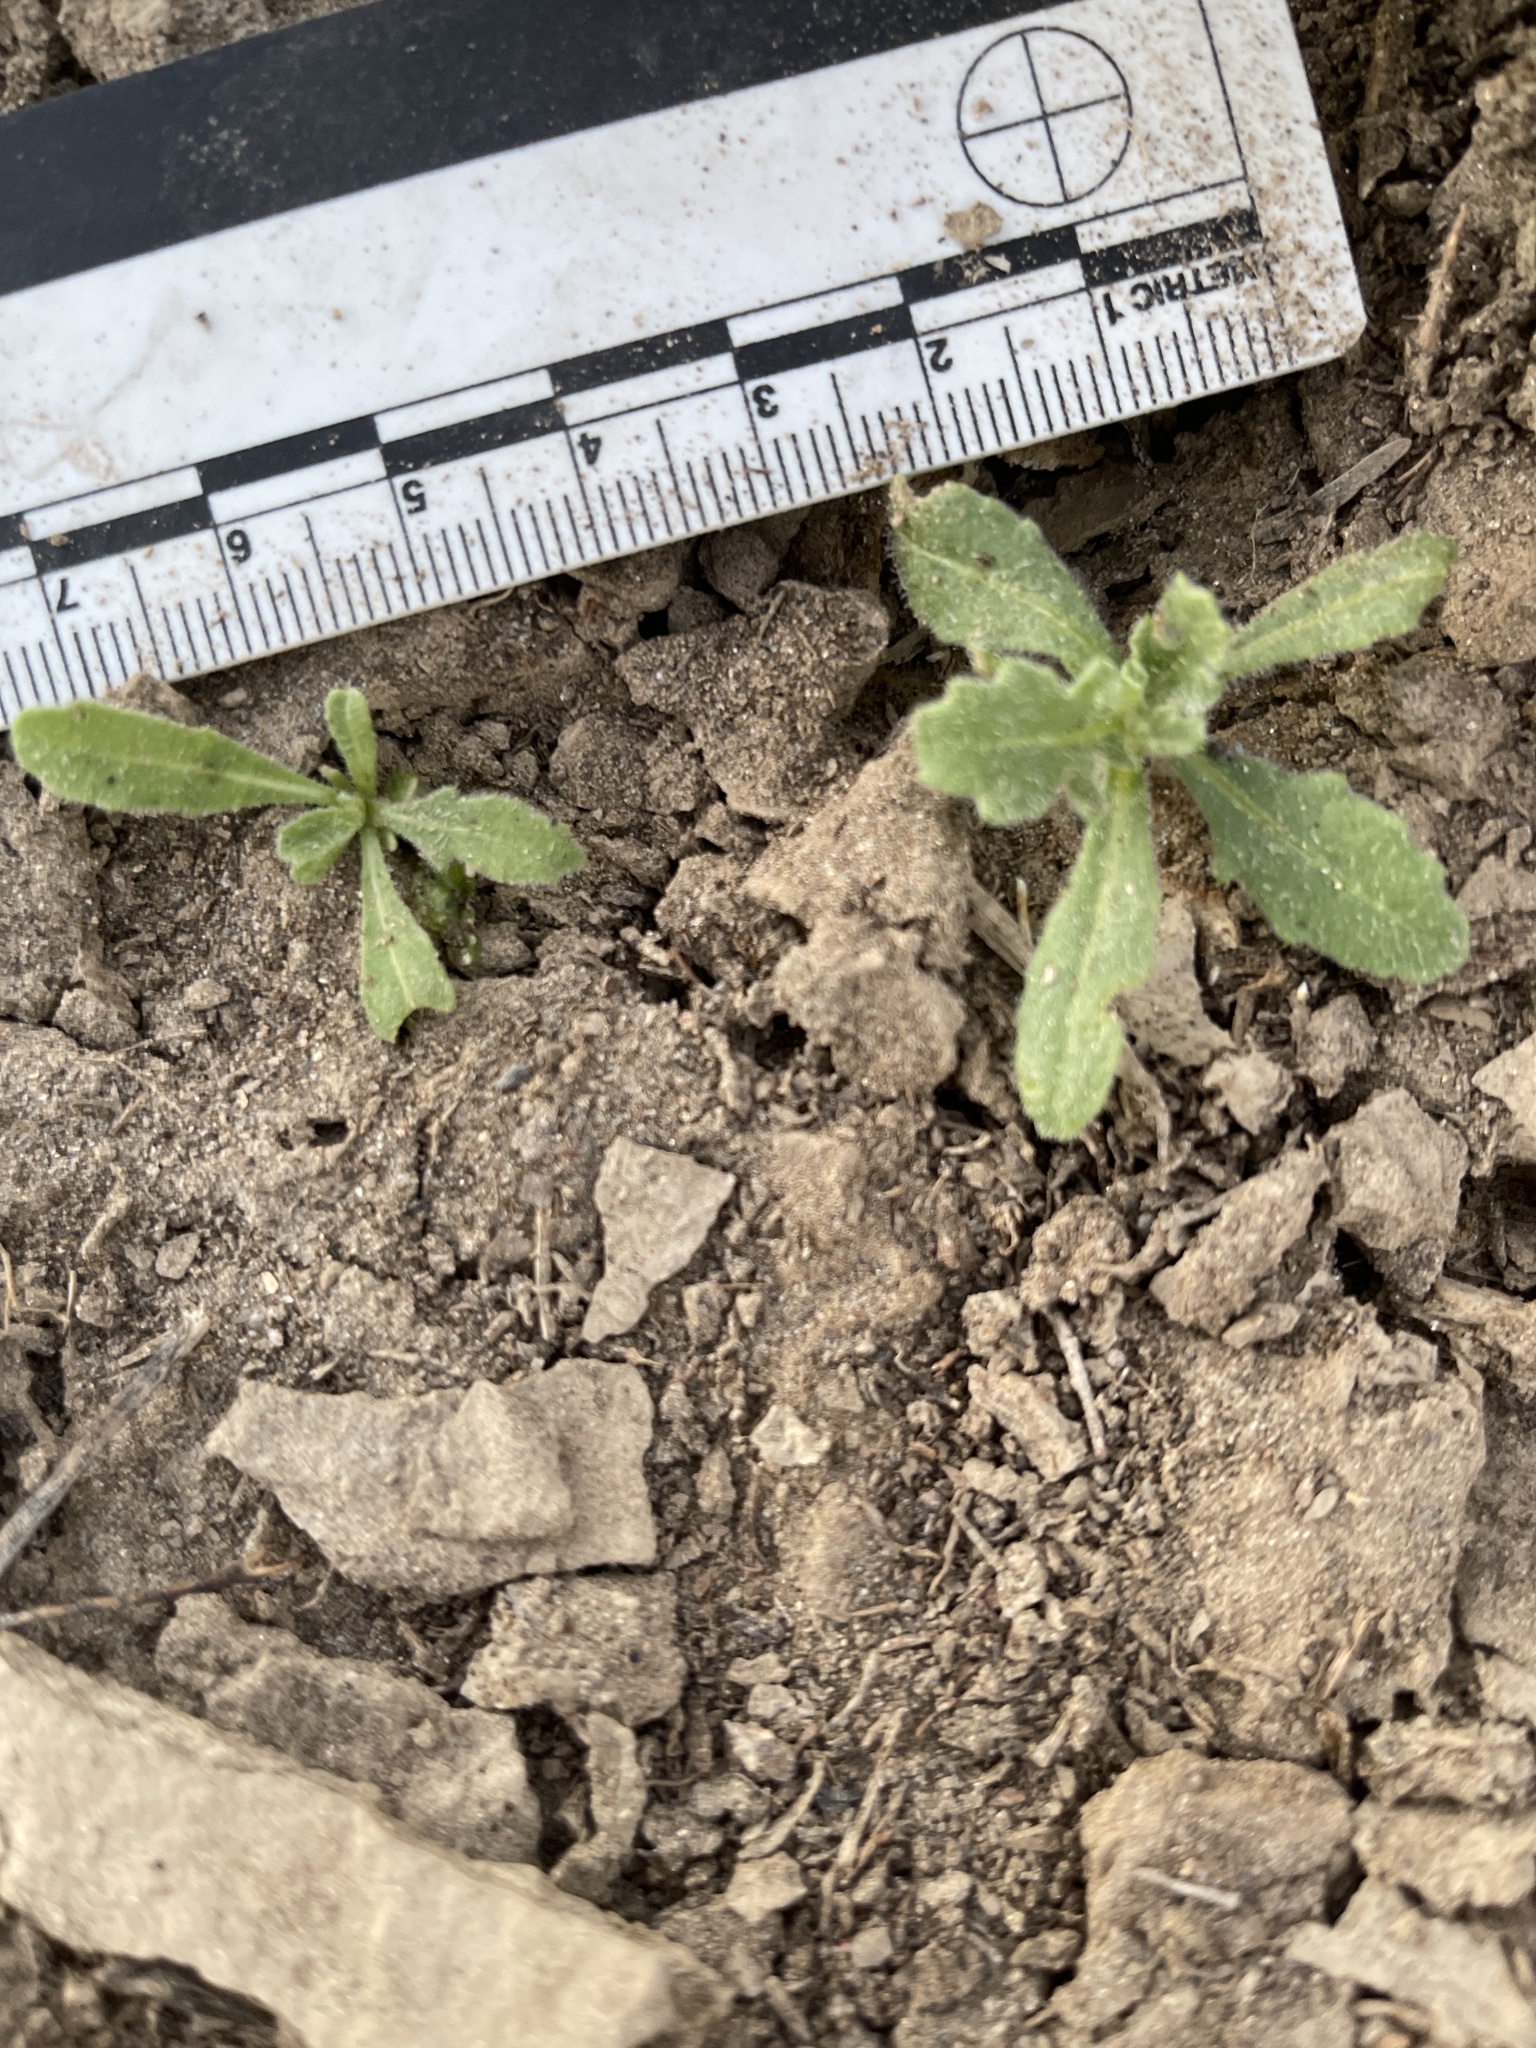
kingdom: Plantae
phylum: Tracheophyta
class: Magnoliopsida
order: Asterales
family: Asteraceae
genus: Volutaria
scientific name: Volutaria tubuliflora
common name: Desert knapweed
